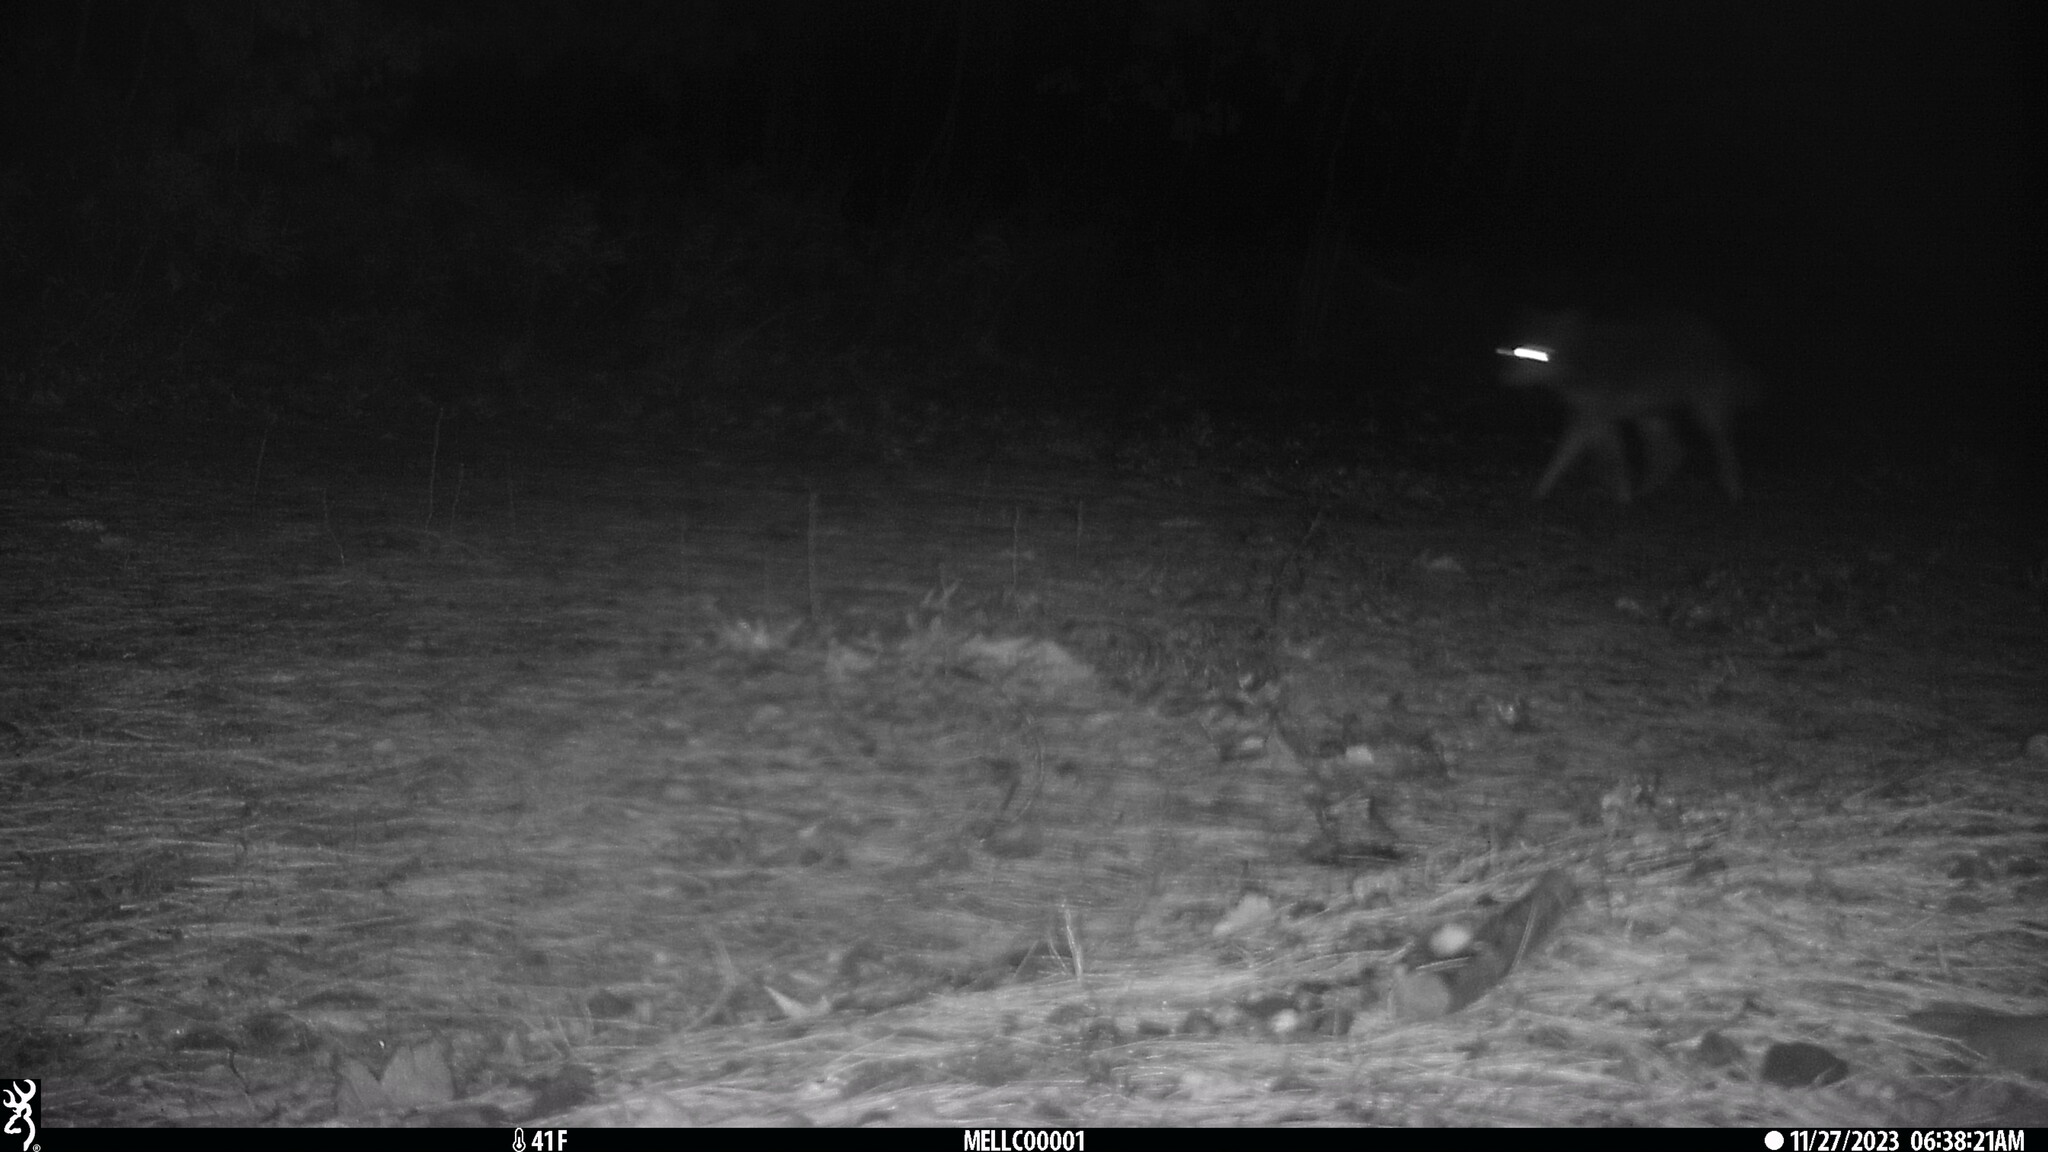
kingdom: Animalia
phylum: Chordata
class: Mammalia
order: Carnivora
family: Canidae
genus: Canis
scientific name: Canis latrans
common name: Coyote
